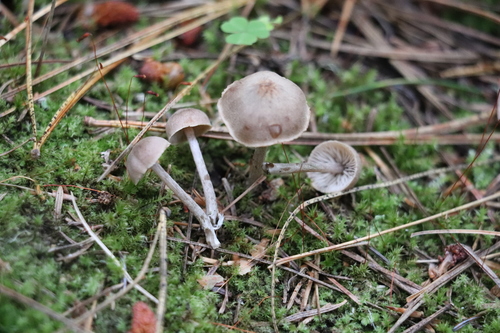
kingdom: Fungi
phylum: Basidiomycota
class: Agaricomycetes
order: Agaricales
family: Callistosporiaceae
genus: Pseudolaccaria
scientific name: Pseudolaccaria pachyphylla
